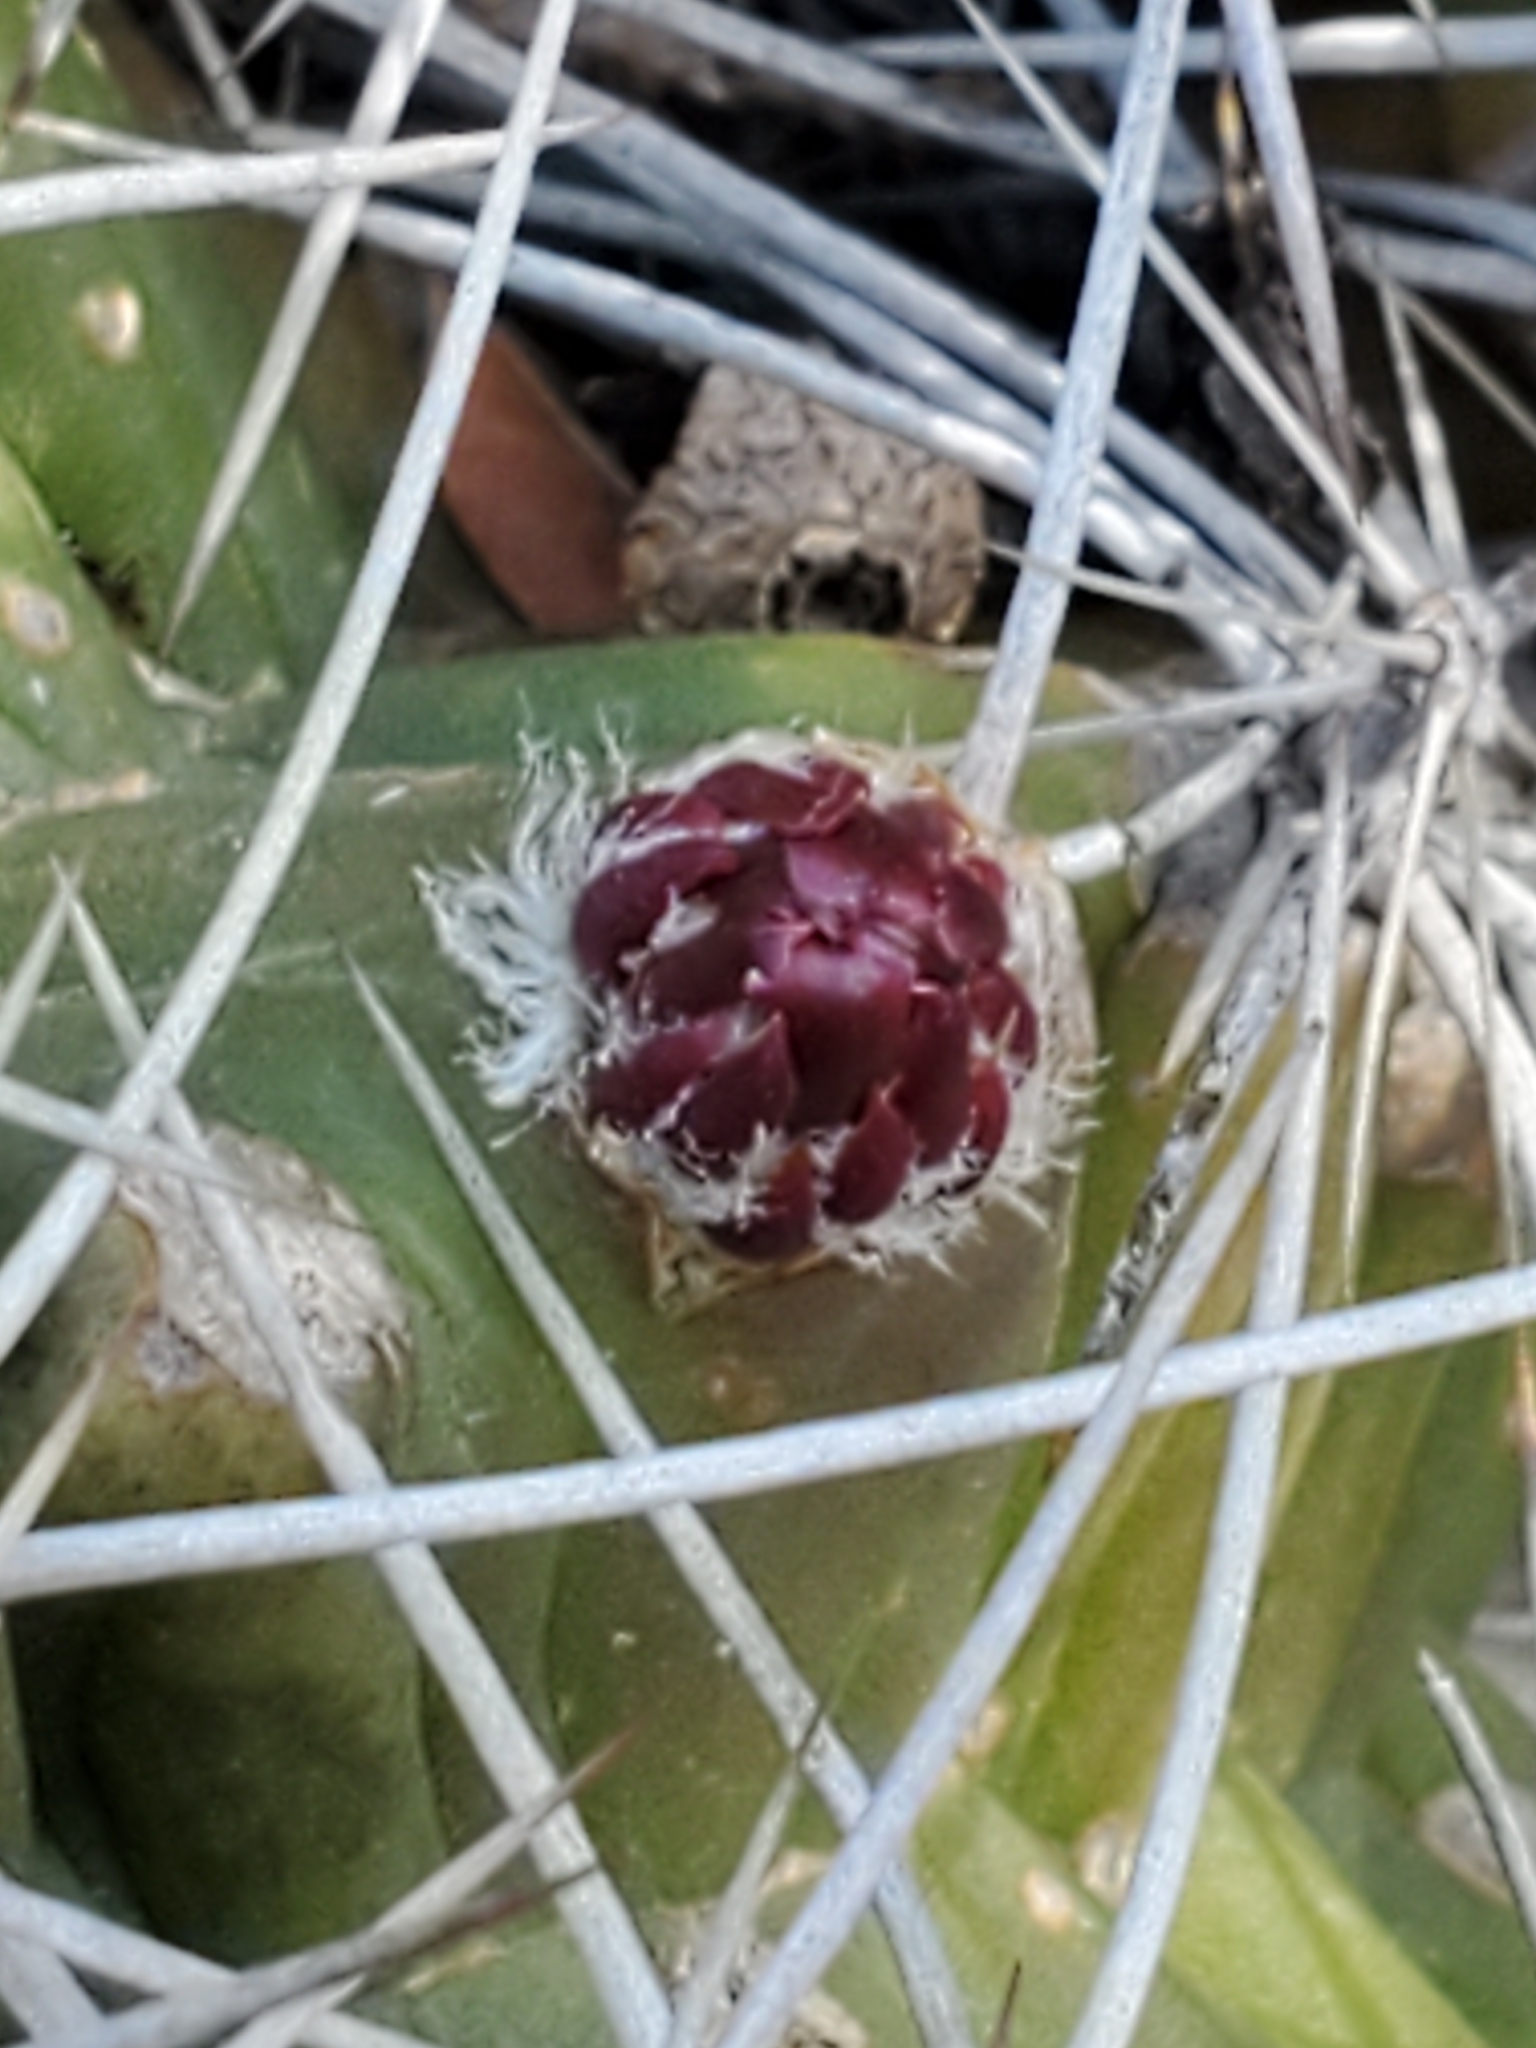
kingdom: Plantae
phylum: Tracheophyta
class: Magnoliopsida
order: Caryophyllales
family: Cactaceae
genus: Echinocereus
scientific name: Echinocereus coccineus
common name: Scarlet hedgehog cactus
